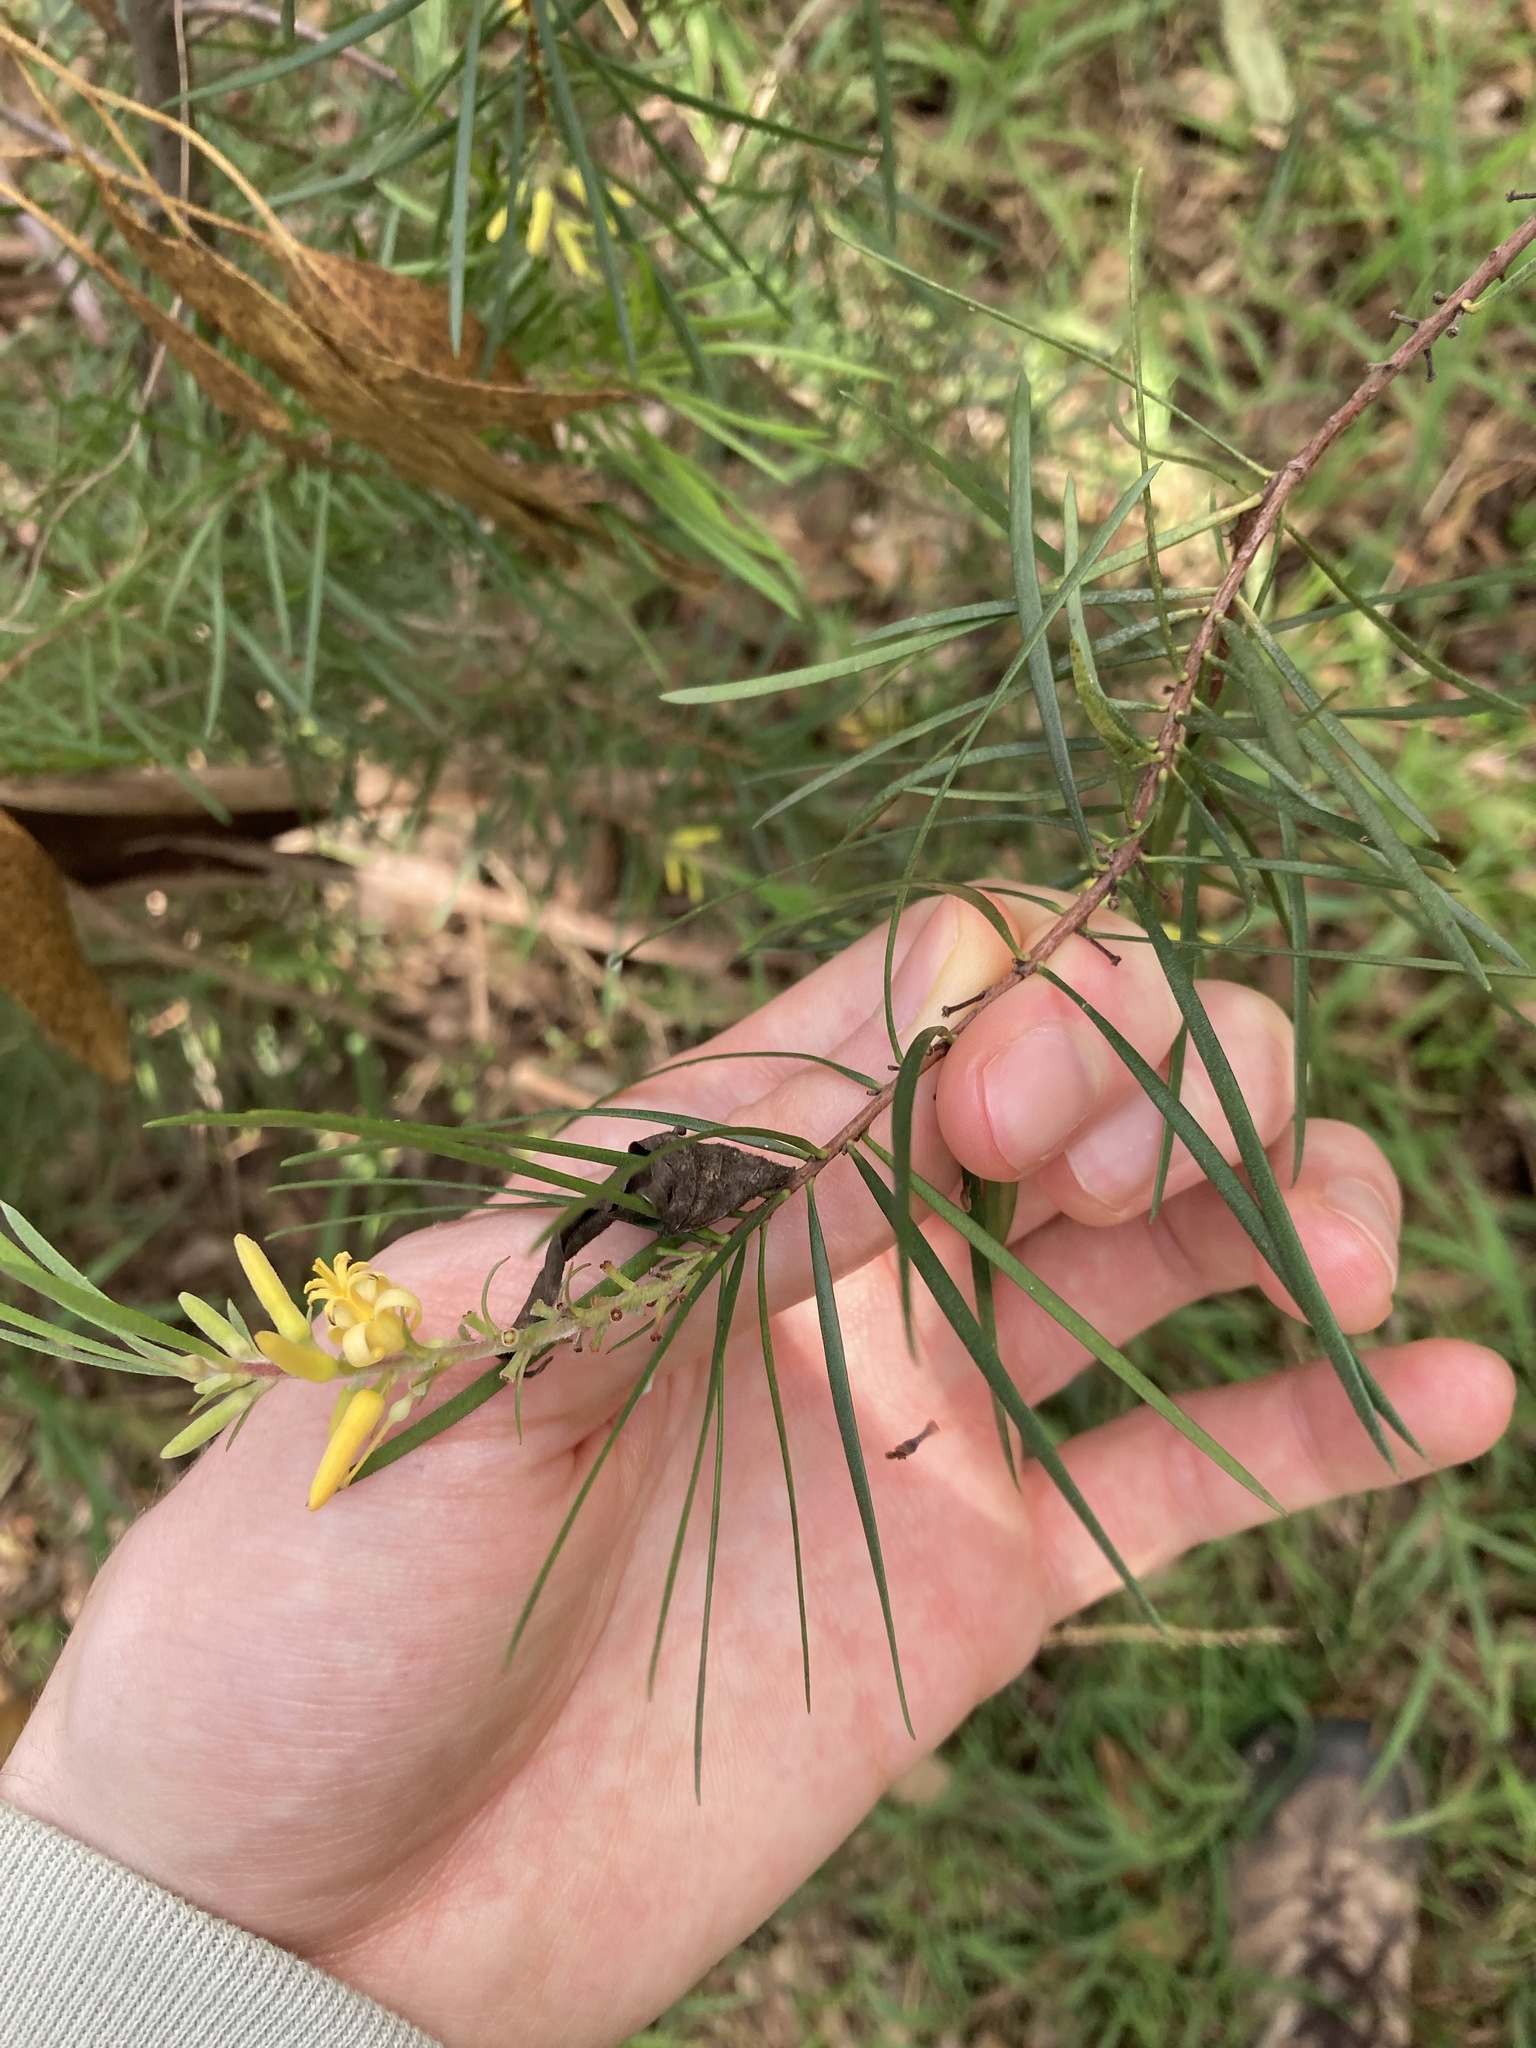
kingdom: Plantae
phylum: Tracheophyta
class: Magnoliopsida
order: Proteales
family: Proteaceae
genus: Persoonia
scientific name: Persoonia linearis
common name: Narrow-leaf geebung
